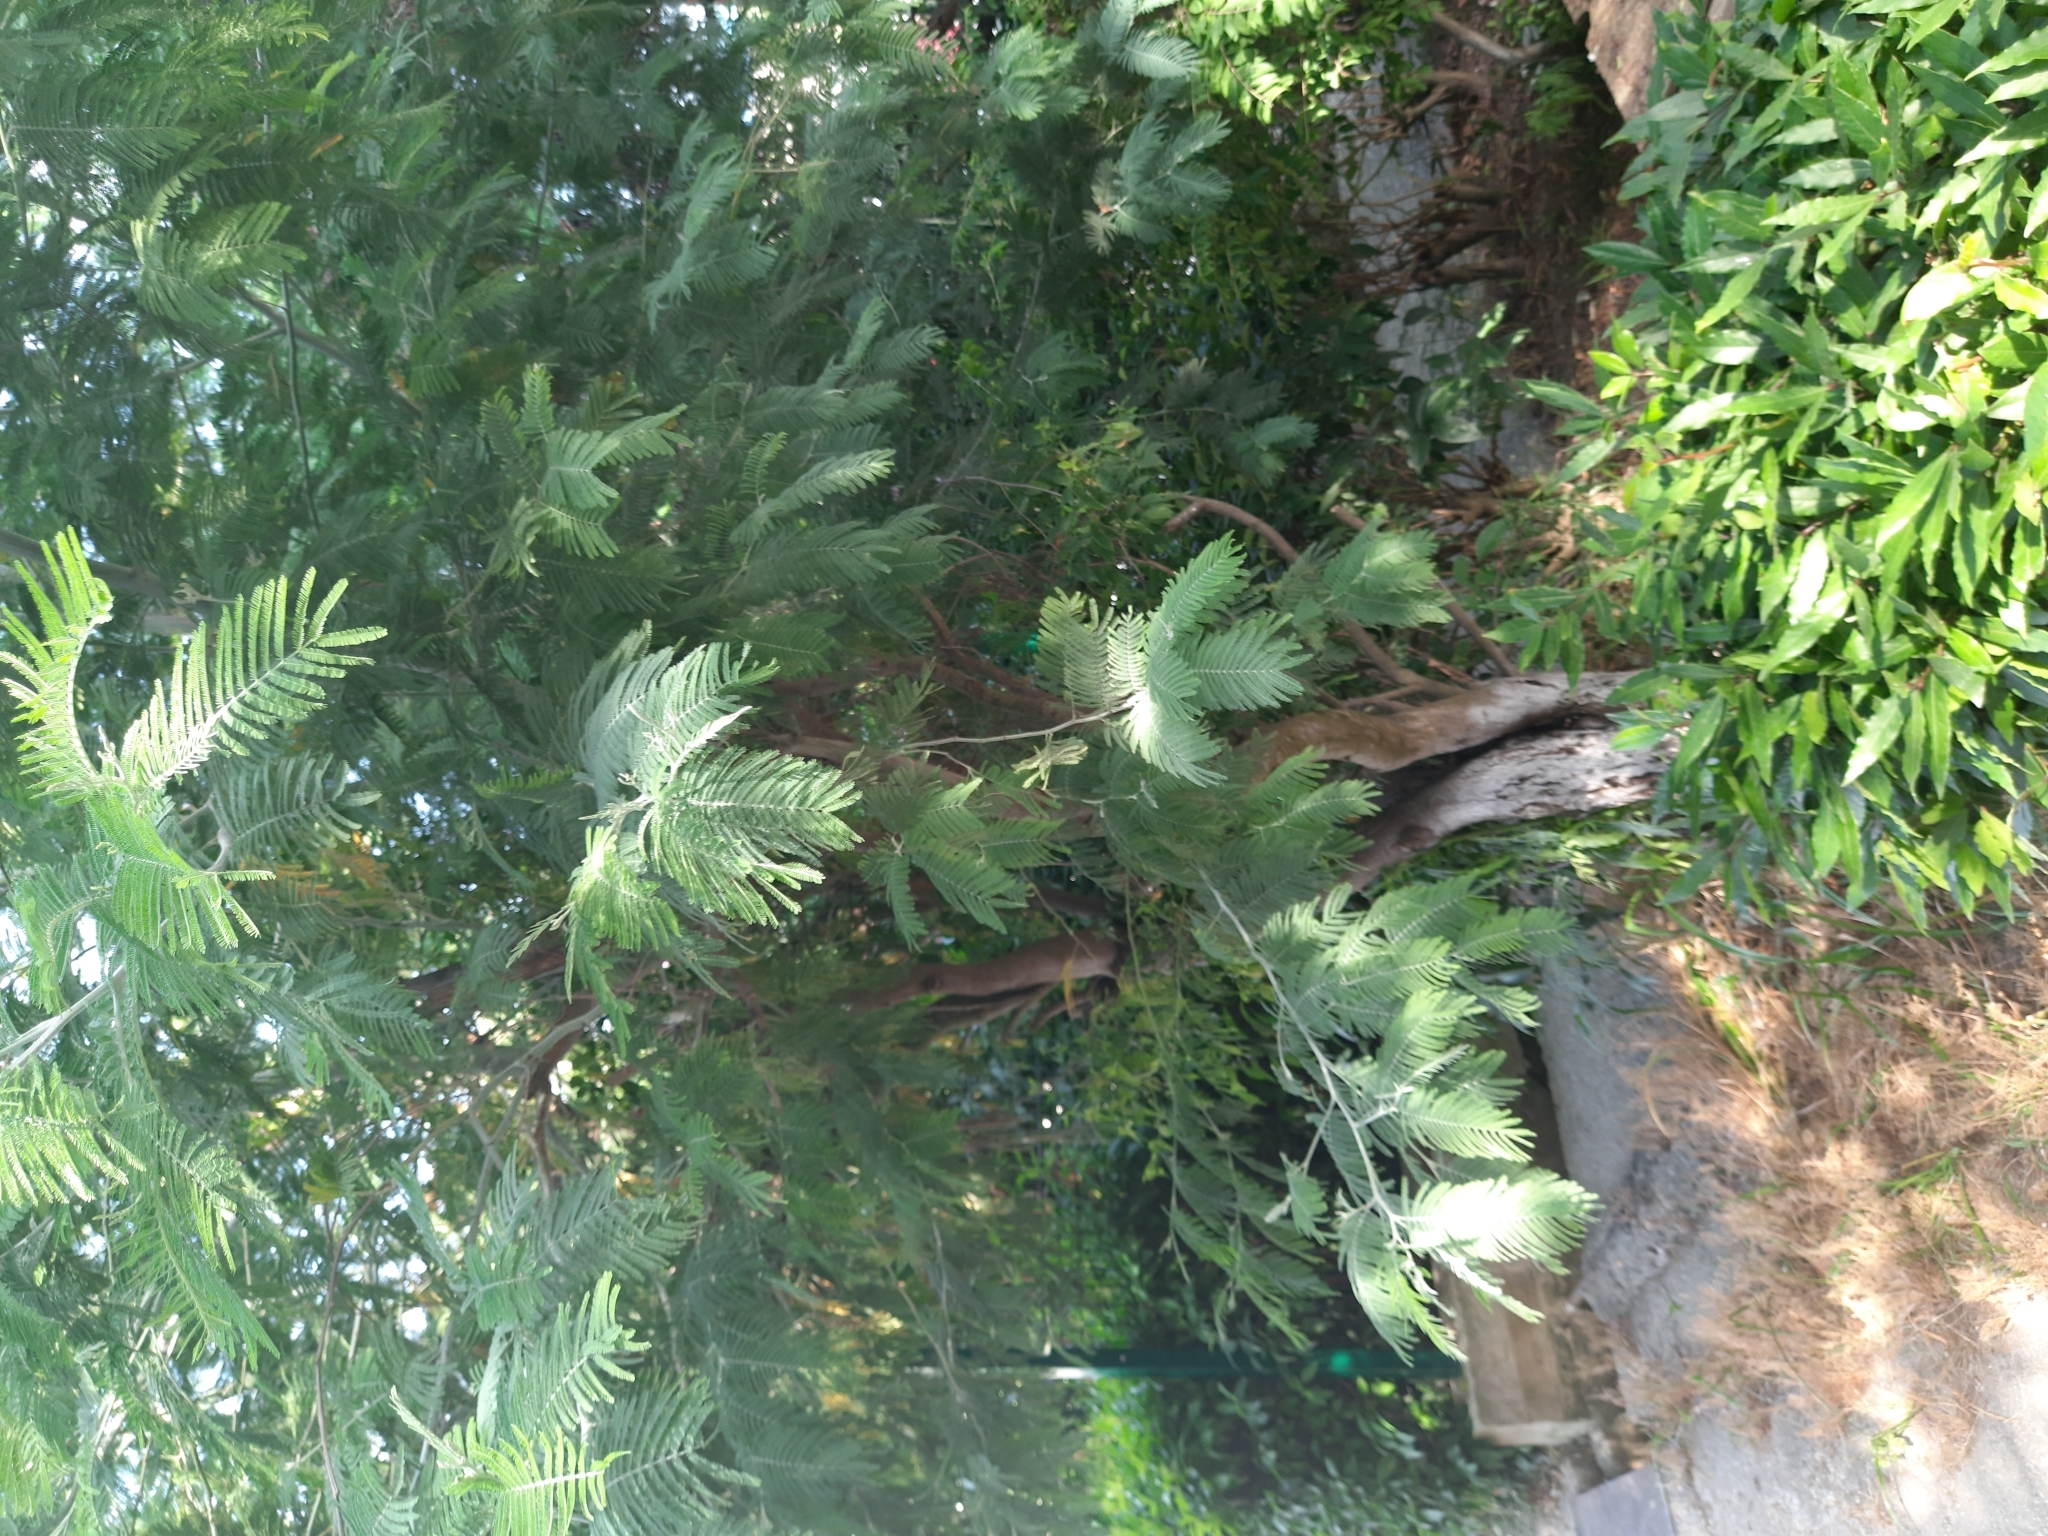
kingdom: Plantae
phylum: Tracheophyta
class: Magnoliopsida
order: Fabales
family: Fabaceae
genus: Acacia
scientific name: Acacia dealbata
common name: Silver wattle
